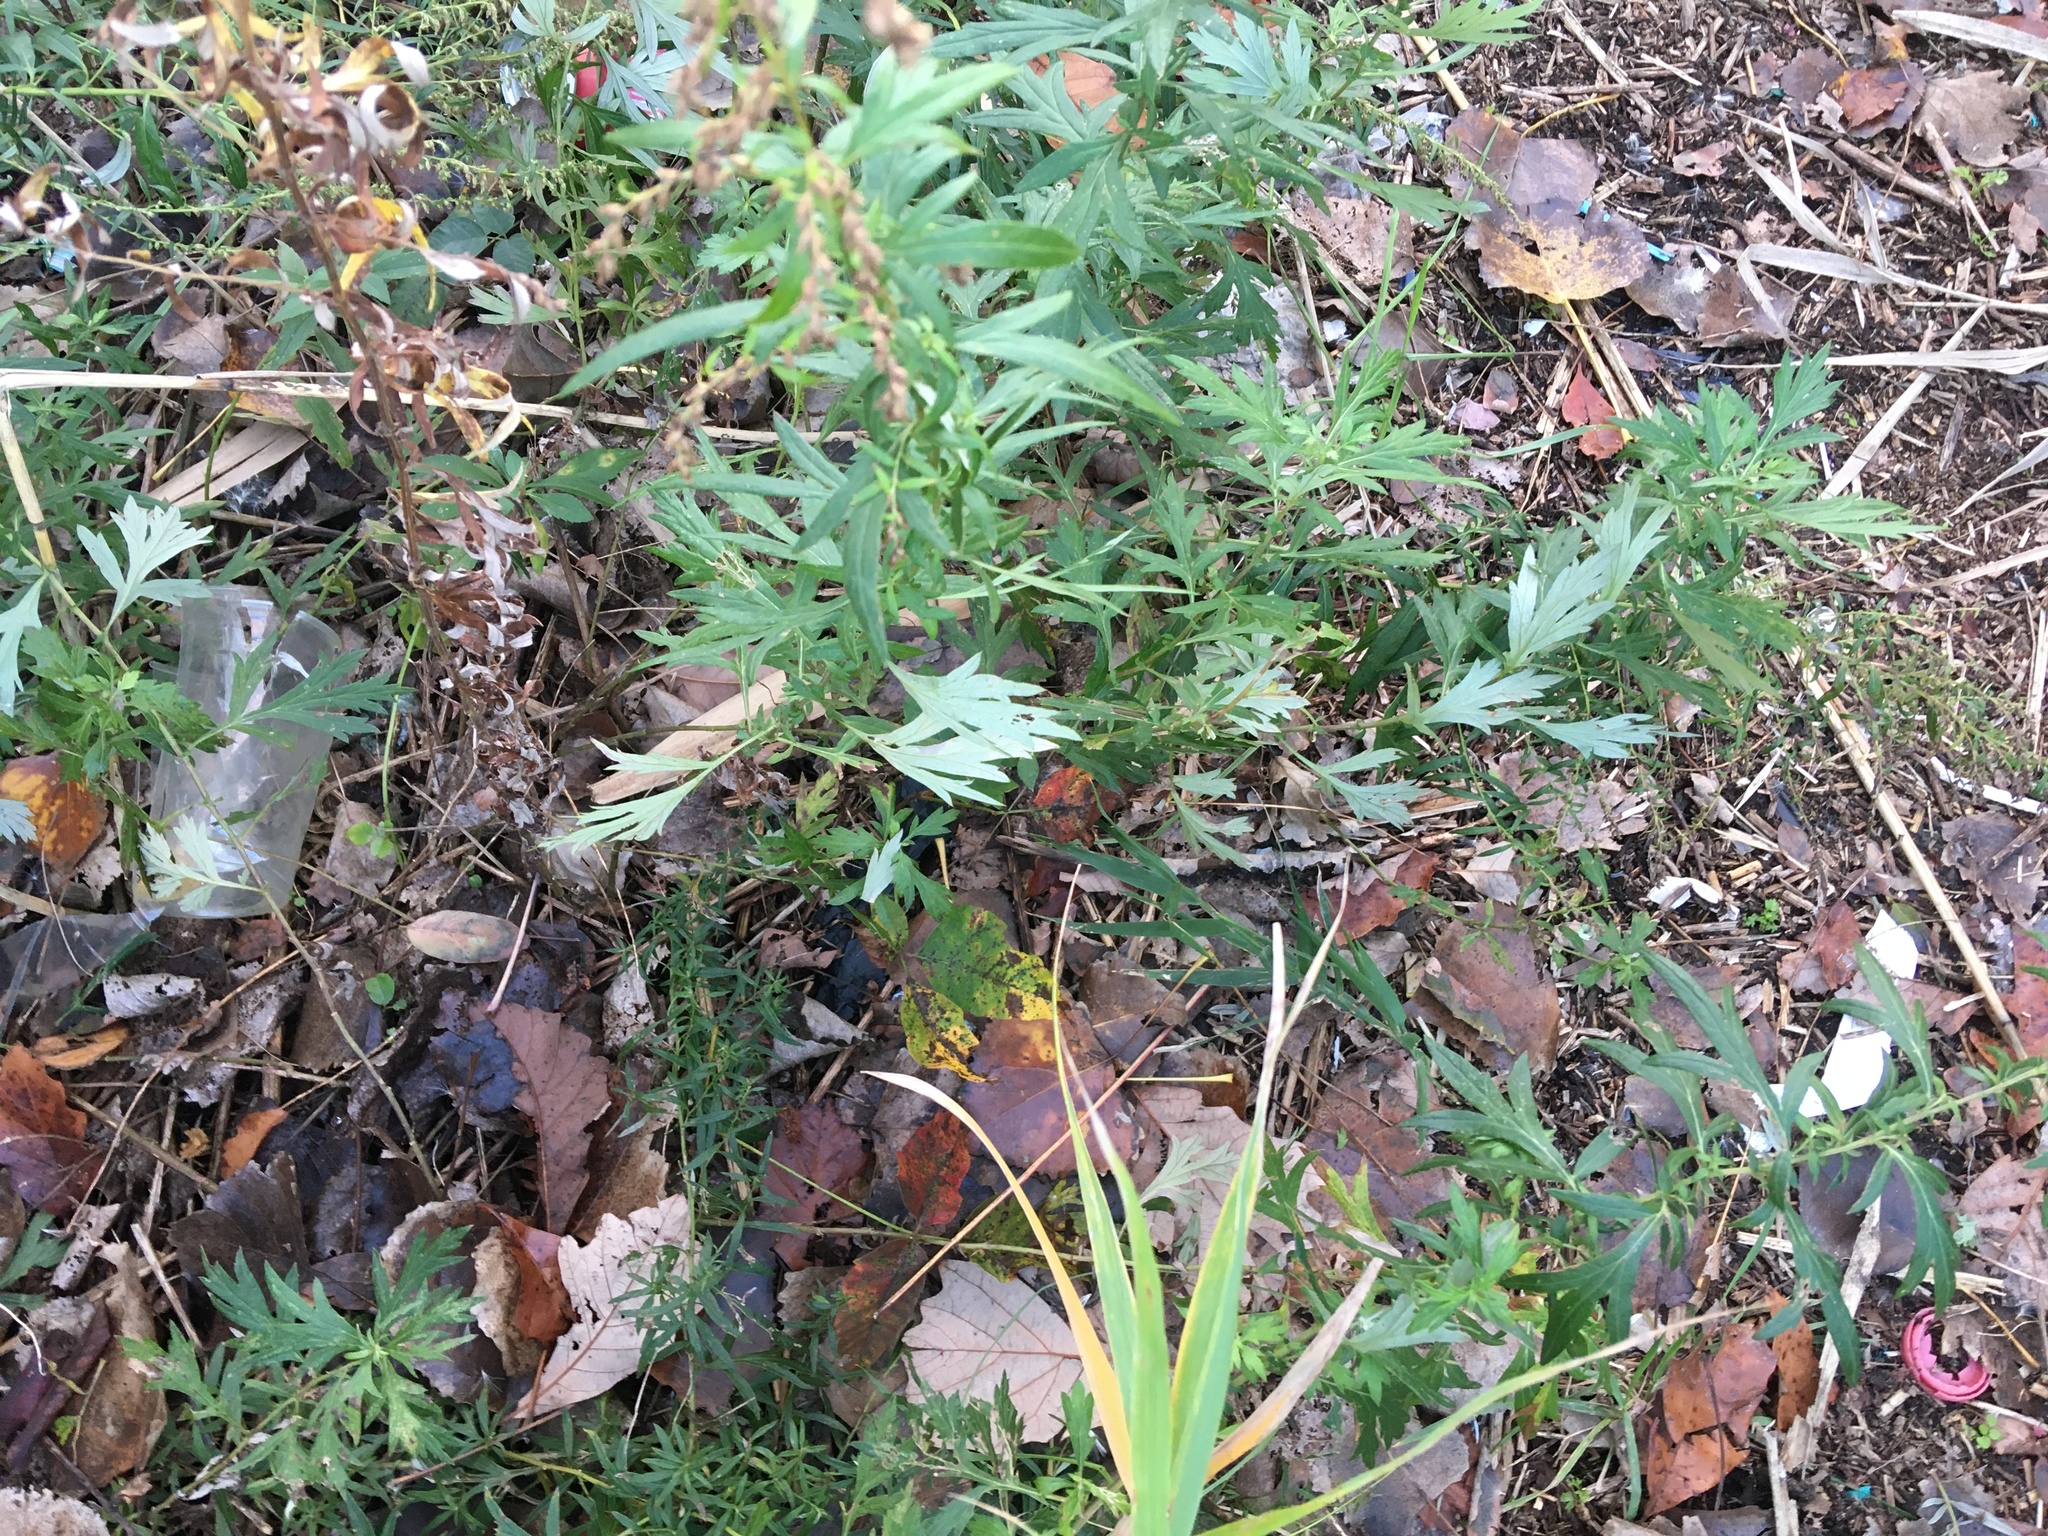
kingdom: Plantae
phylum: Tracheophyta
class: Magnoliopsida
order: Asterales
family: Asteraceae
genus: Artemisia
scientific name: Artemisia vulgaris
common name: Mugwort
